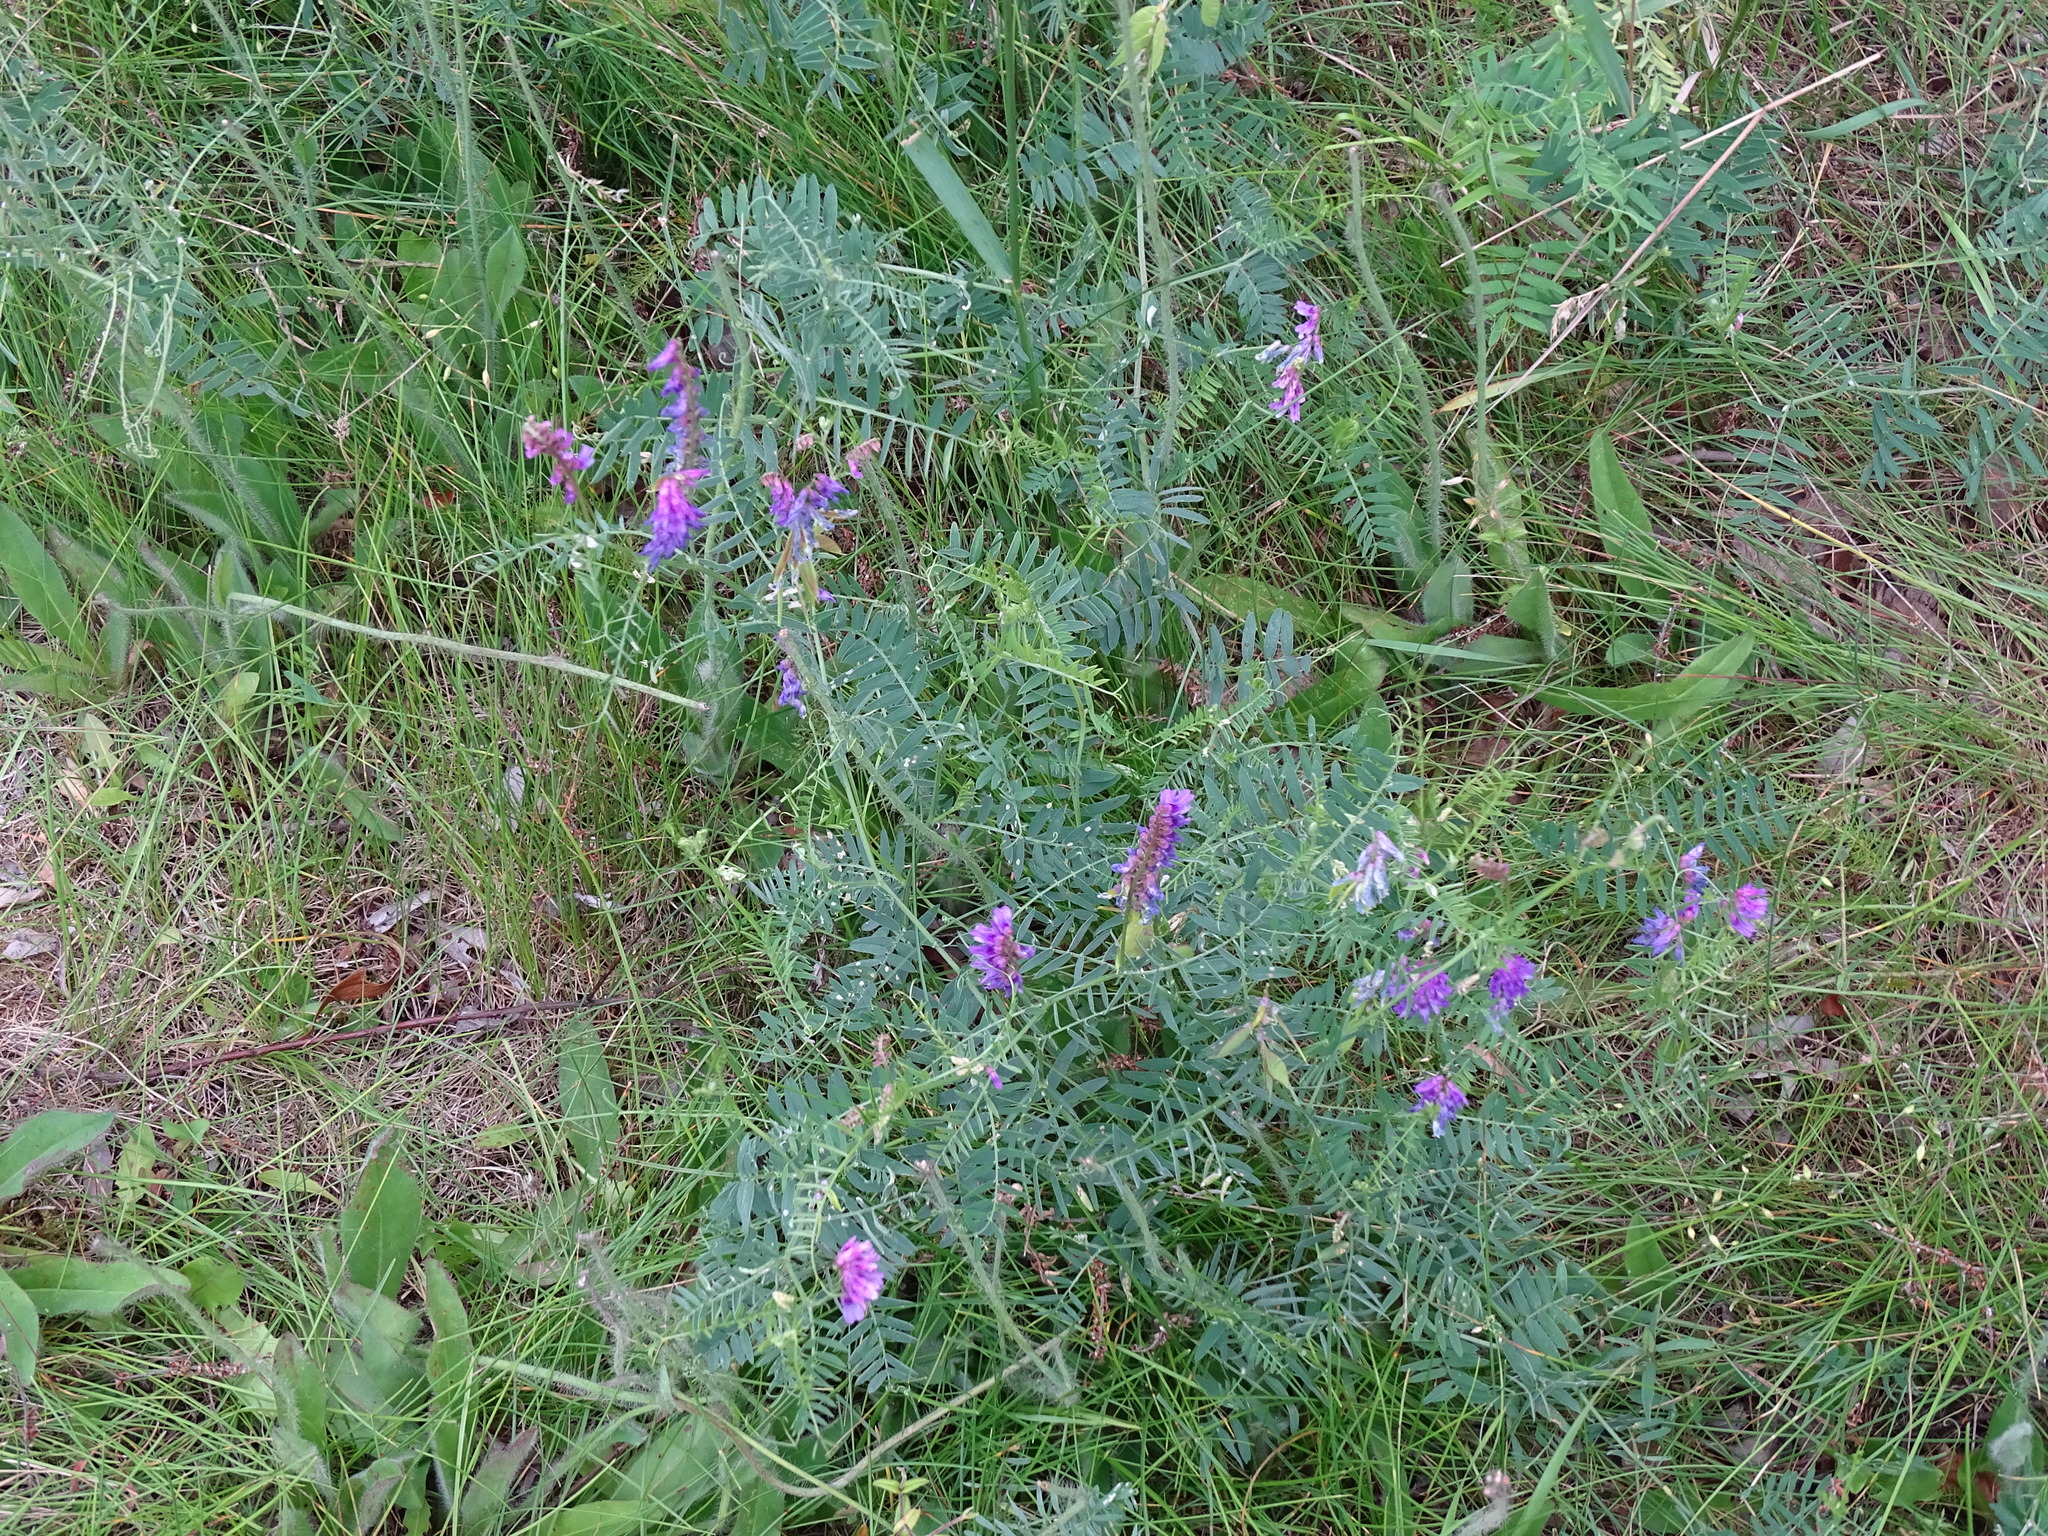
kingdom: Plantae
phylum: Tracheophyta
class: Magnoliopsida
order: Fabales
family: Fabaceae
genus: Vicia
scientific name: Vicia cracca
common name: Bird vetch
